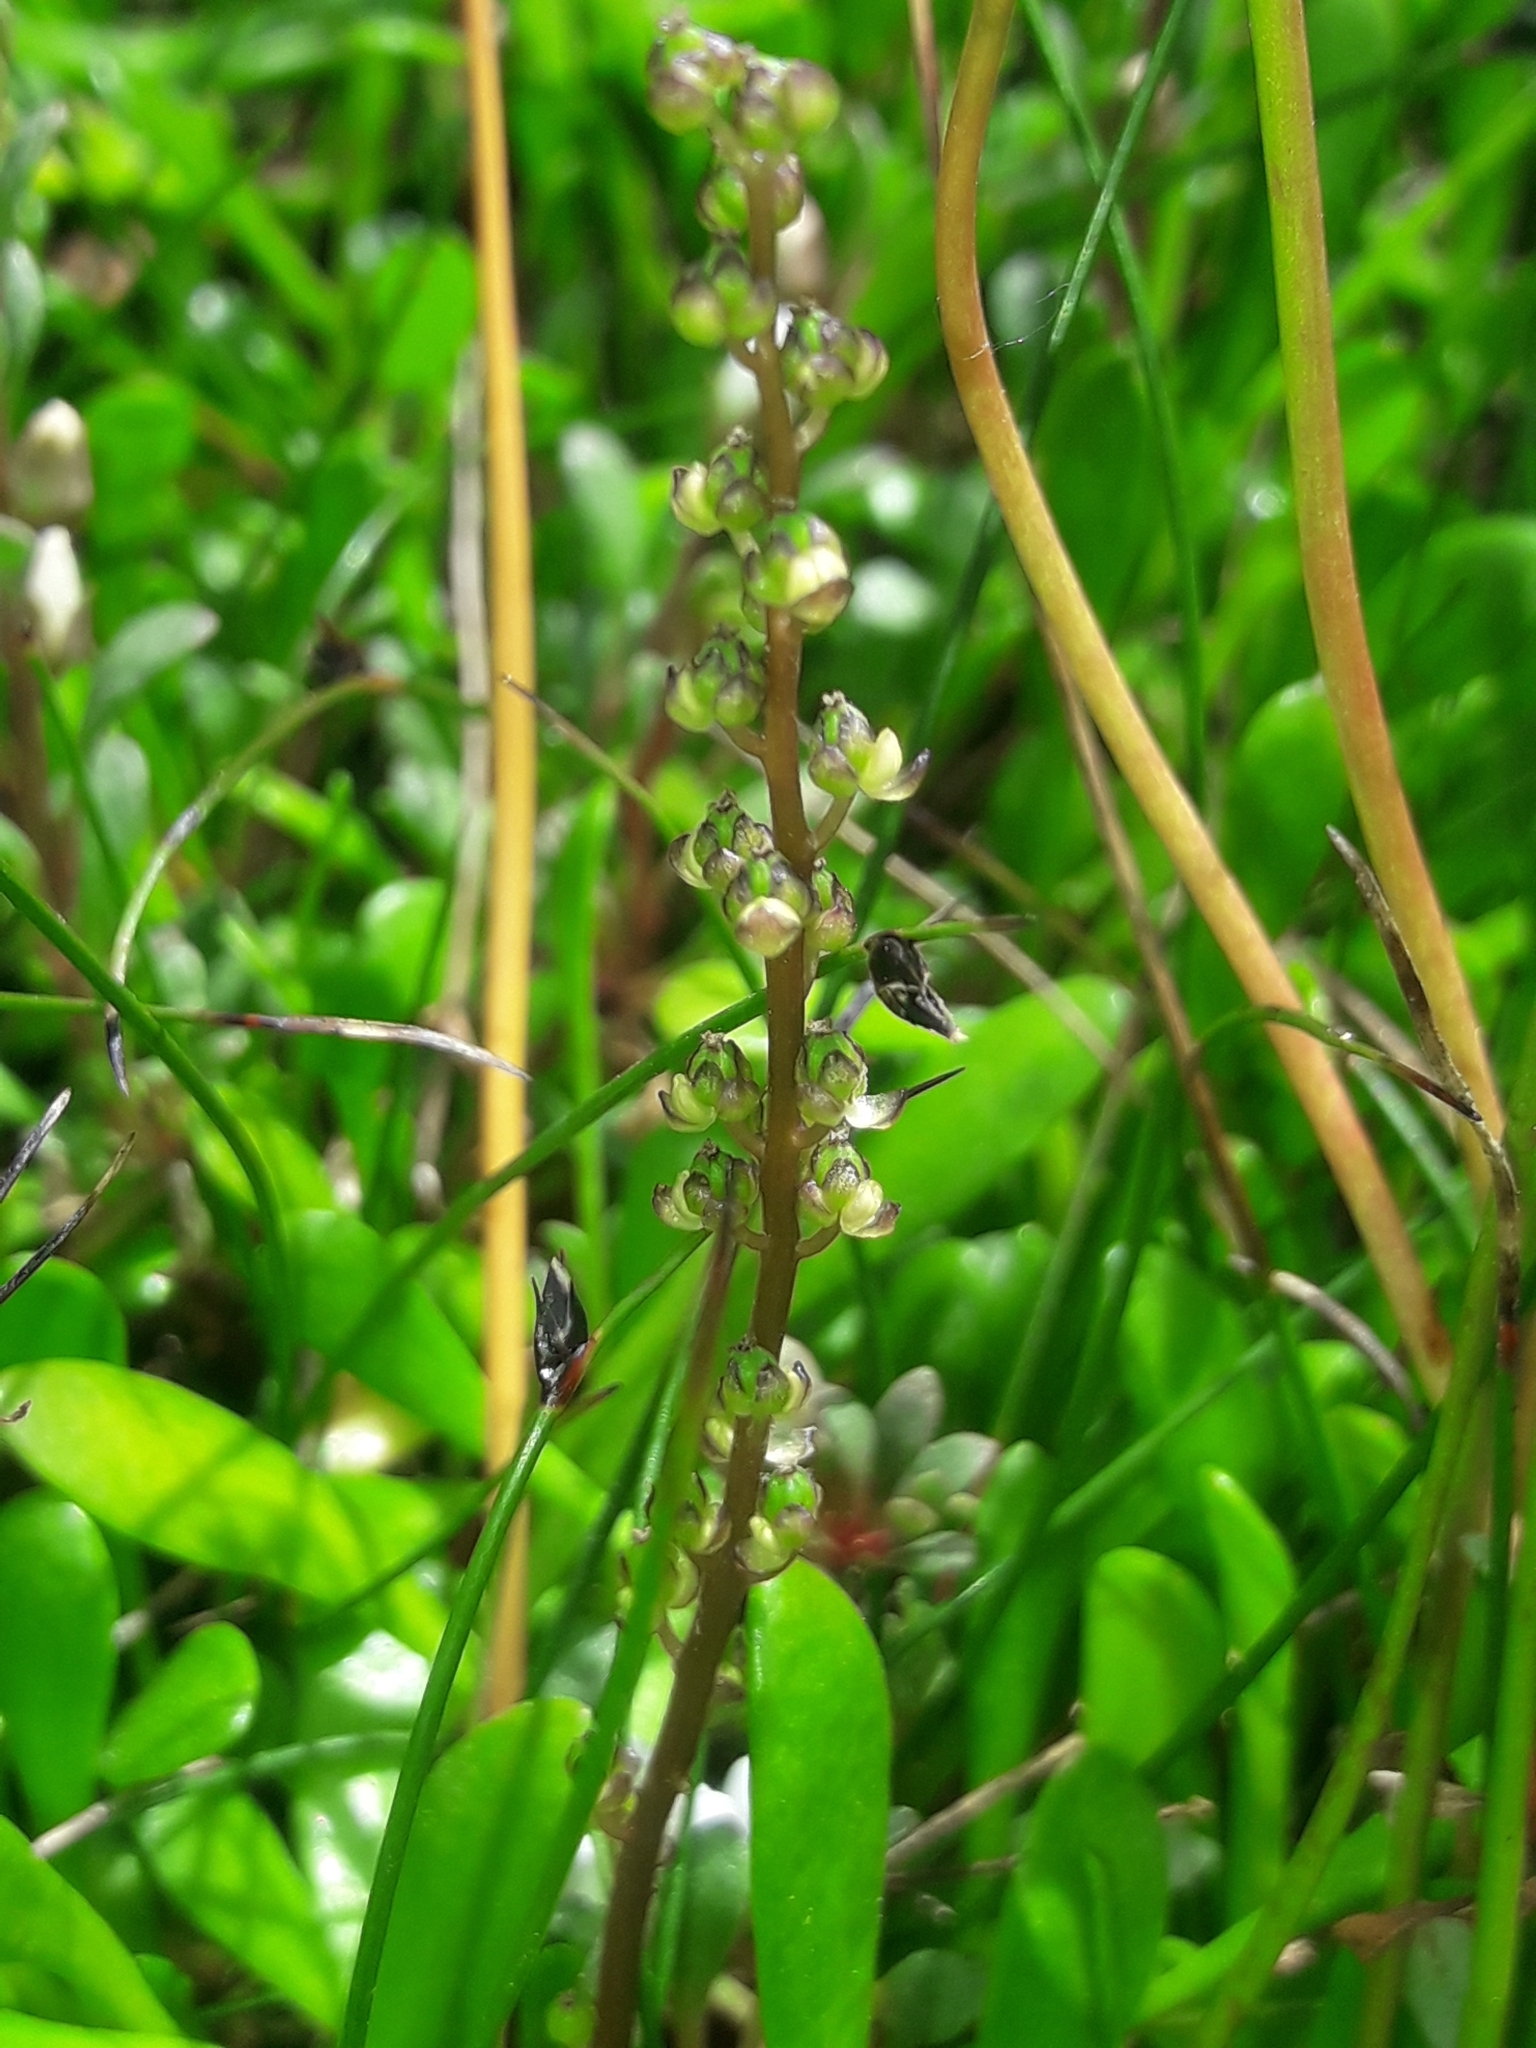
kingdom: Plantae
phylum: Tracheophyta
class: Liliopsida
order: Alismatales
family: Juncaginaceae
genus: Triglochin
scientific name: Triglochin striata
